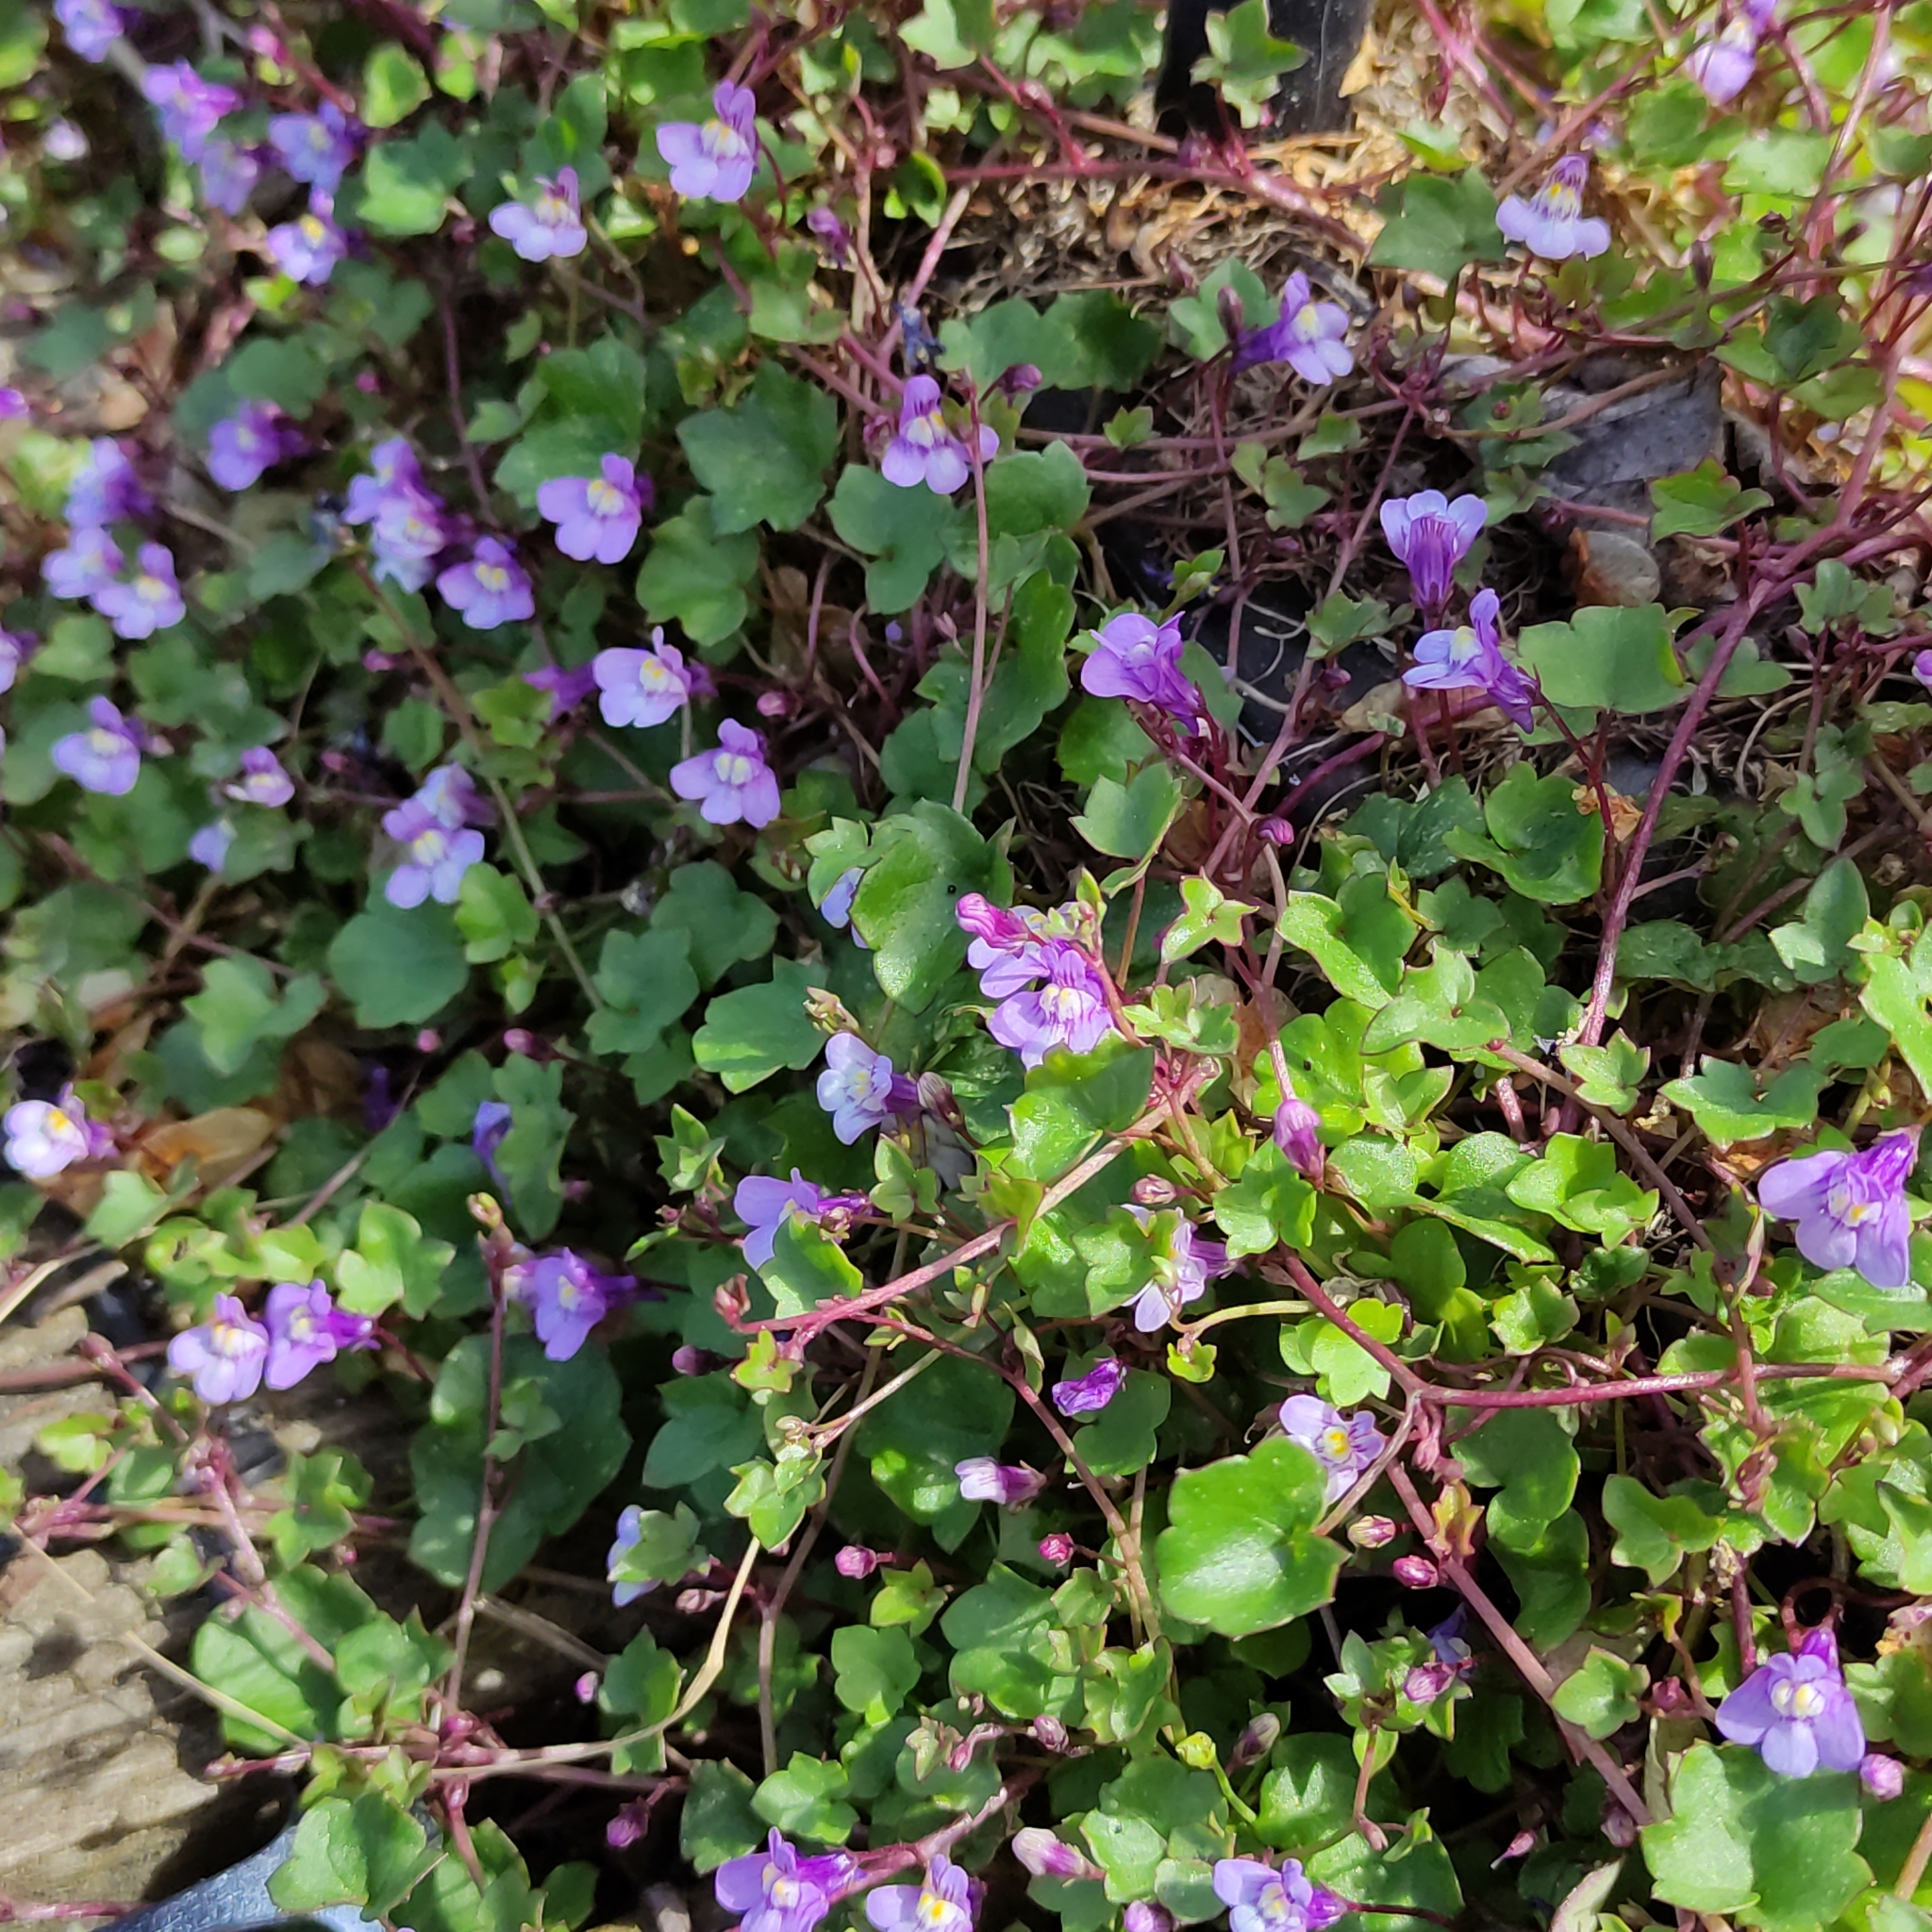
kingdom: Plantae
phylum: Tracheophyta
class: Magnoliopsida
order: Lamiales
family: Plantaginaceae
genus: Cymbalaria
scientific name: Cymbalaria muralis
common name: Ivy-leaved toadflax
